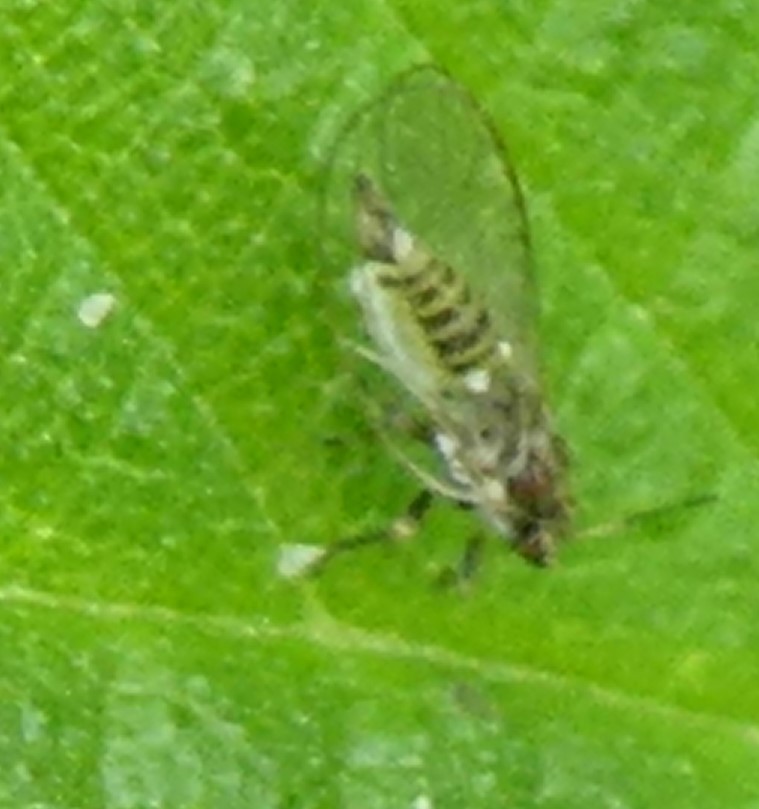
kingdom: Animalia
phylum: Arthropoda
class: Insecta
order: Hemiptera
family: Triozidae
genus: Trioza
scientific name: Trioza urticae
